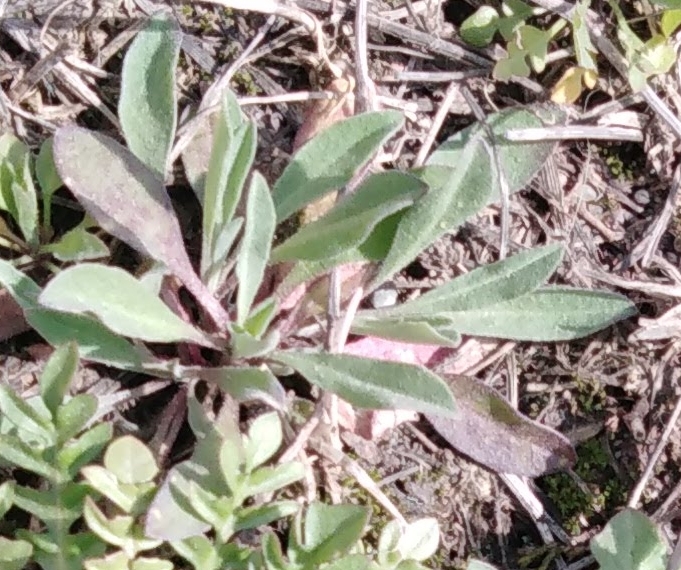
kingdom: Plantae
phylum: Tracheophyta
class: Magnoliopsida
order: Brassicales
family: Brassicaceae
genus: Berteroa
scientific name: Berteroa incana
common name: Hoary alison
